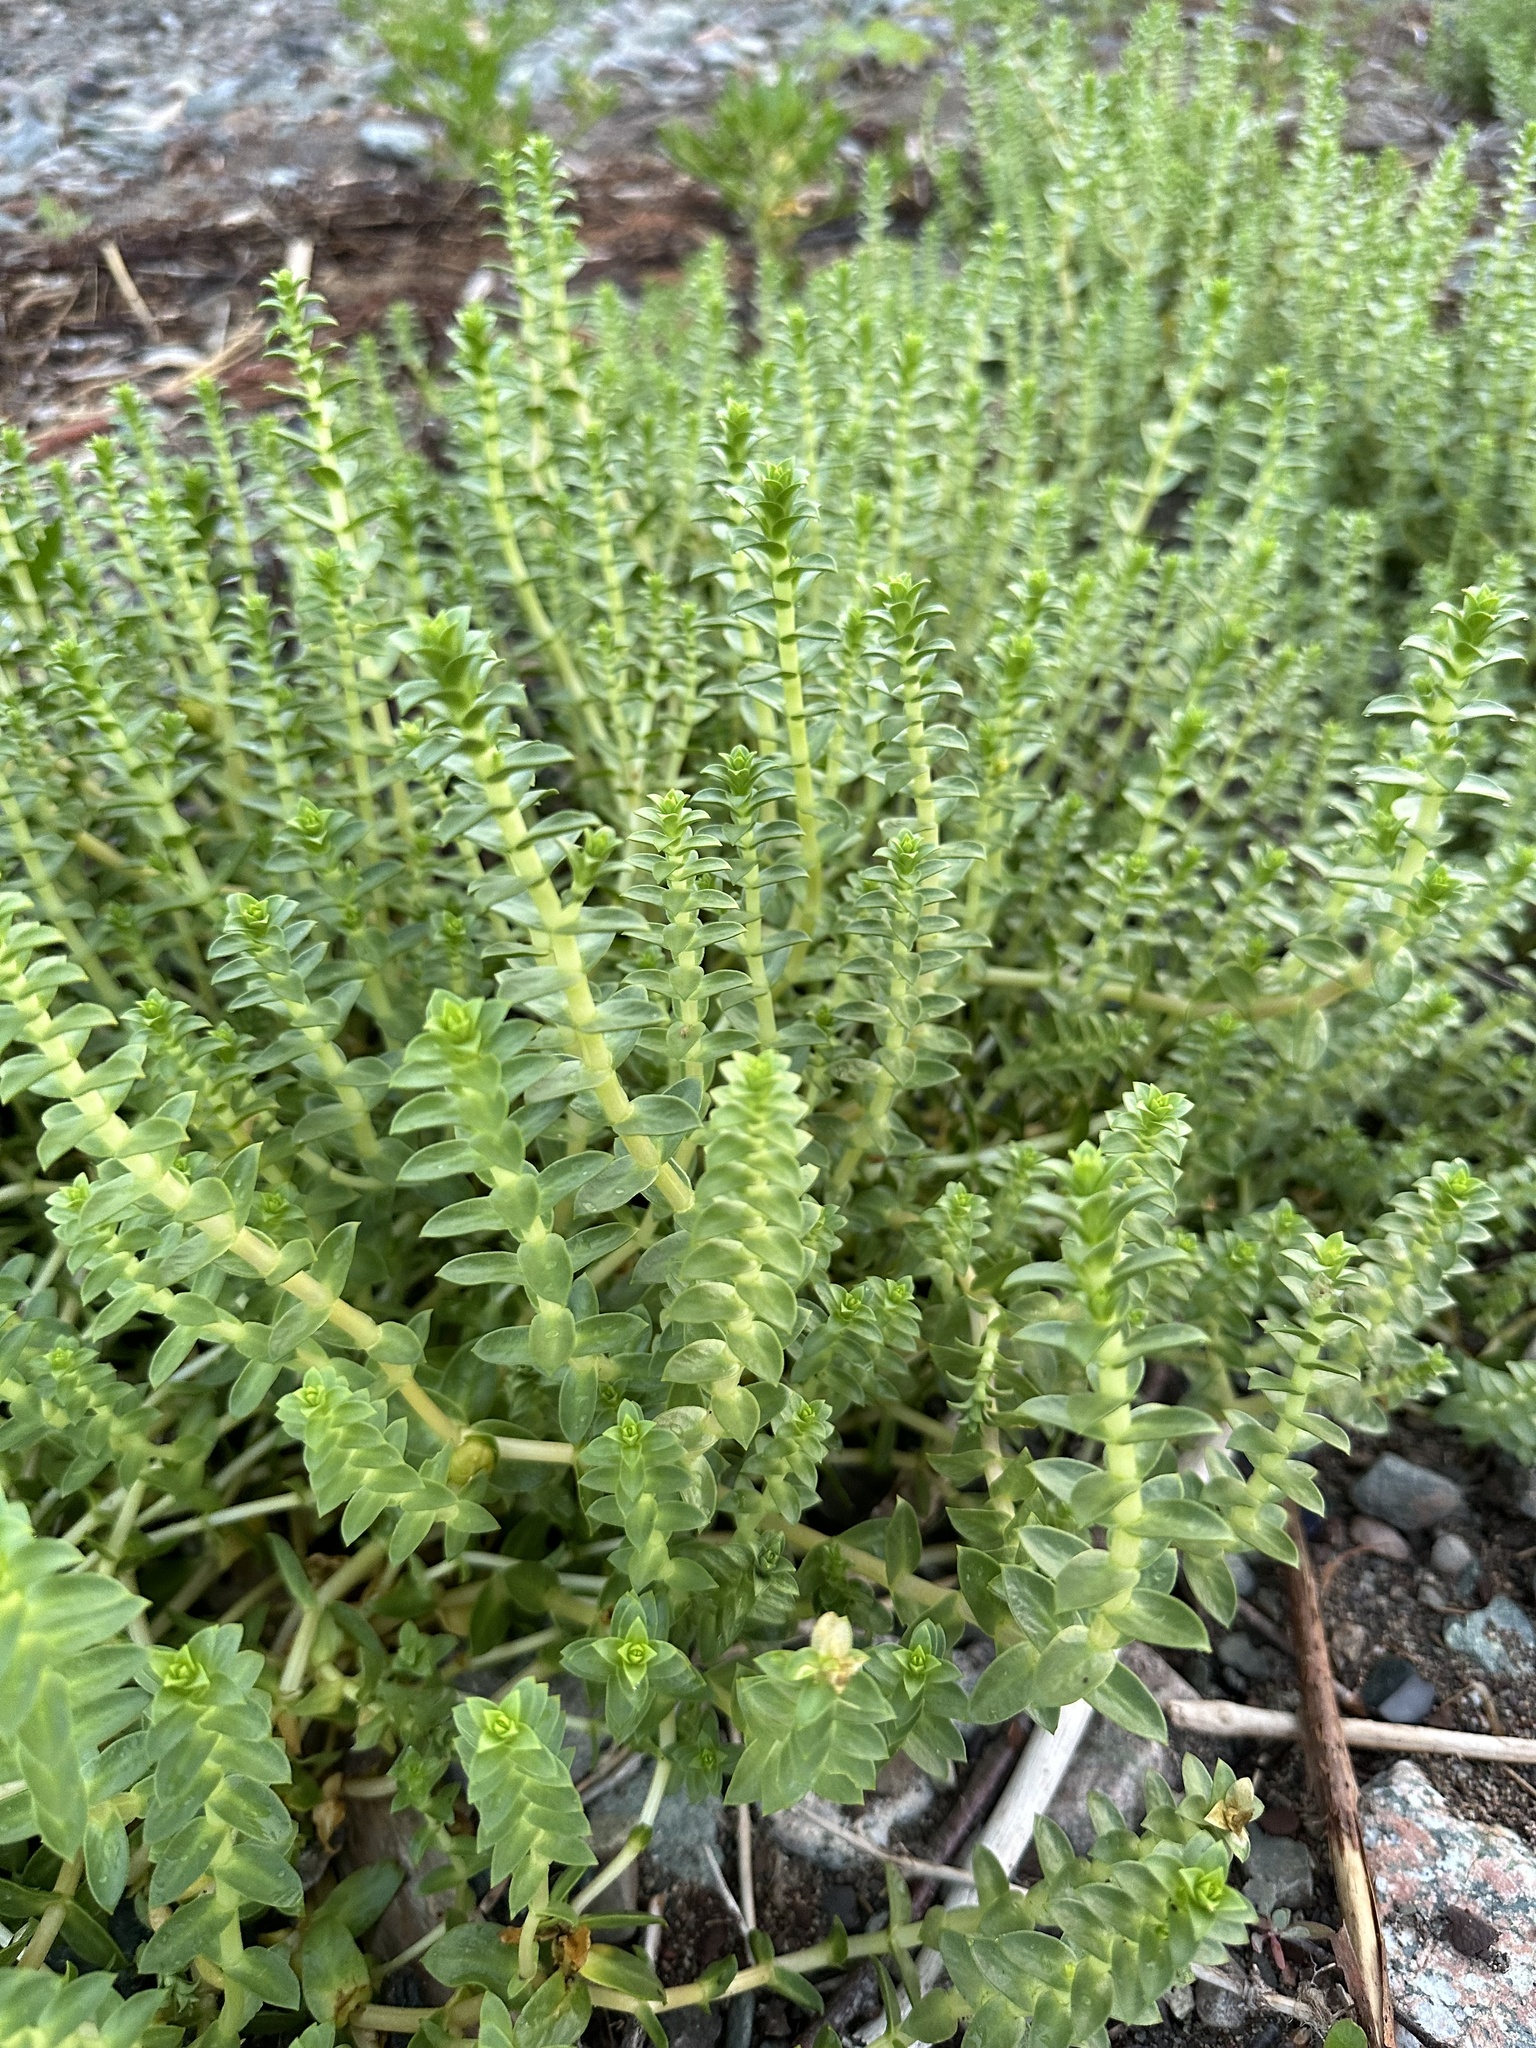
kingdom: Plantae
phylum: Tracheophyta
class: Magnoliopsida
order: Caryophyllales
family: Caryophyllaceae
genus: Honckenya
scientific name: Honckenya peploides
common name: Sea sandwort
